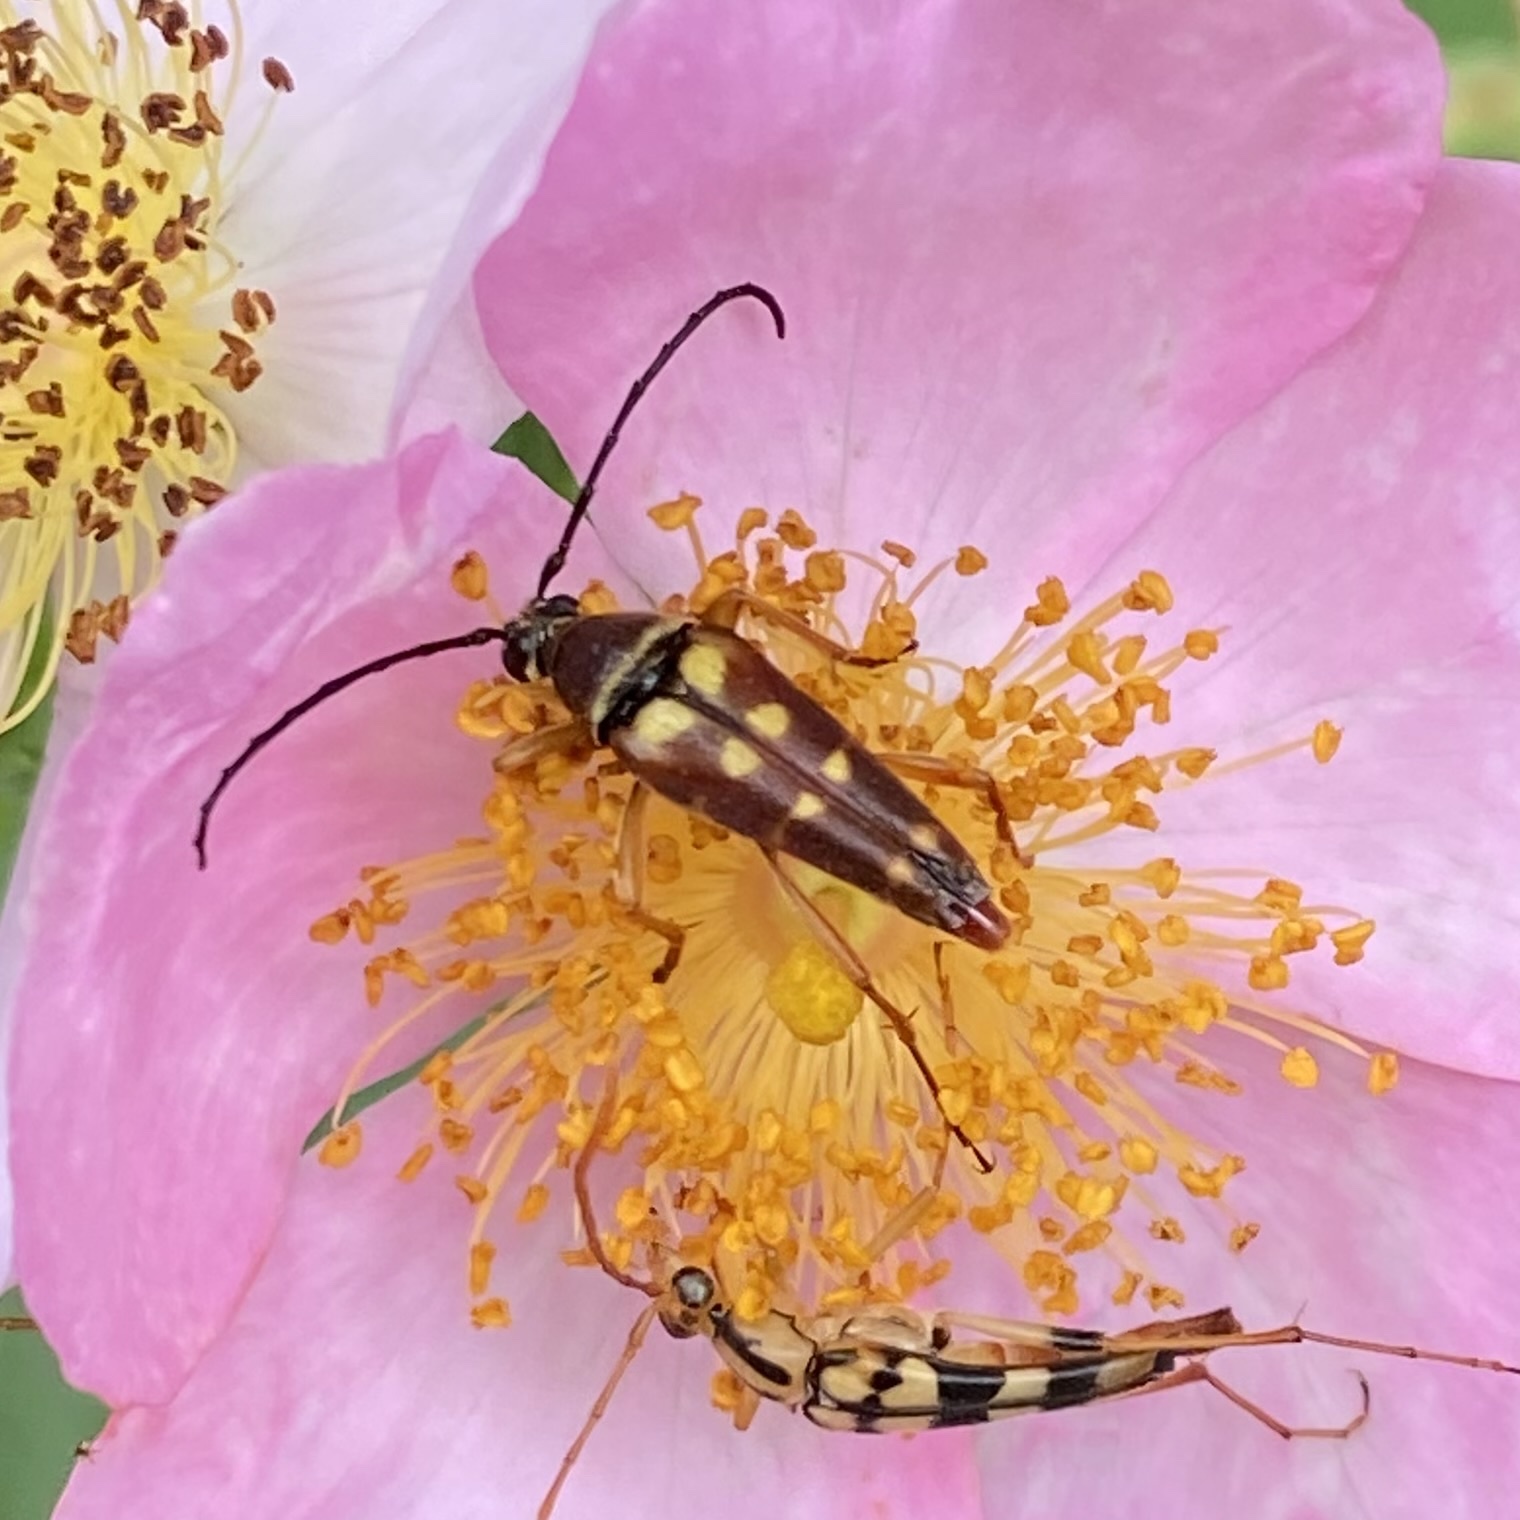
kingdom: Animalia
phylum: Arthropoda
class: Insecta
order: Coleoptera
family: Cerambycidae
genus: Typocerus
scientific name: Typocerus velutinus
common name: Banded longhorn beetle
